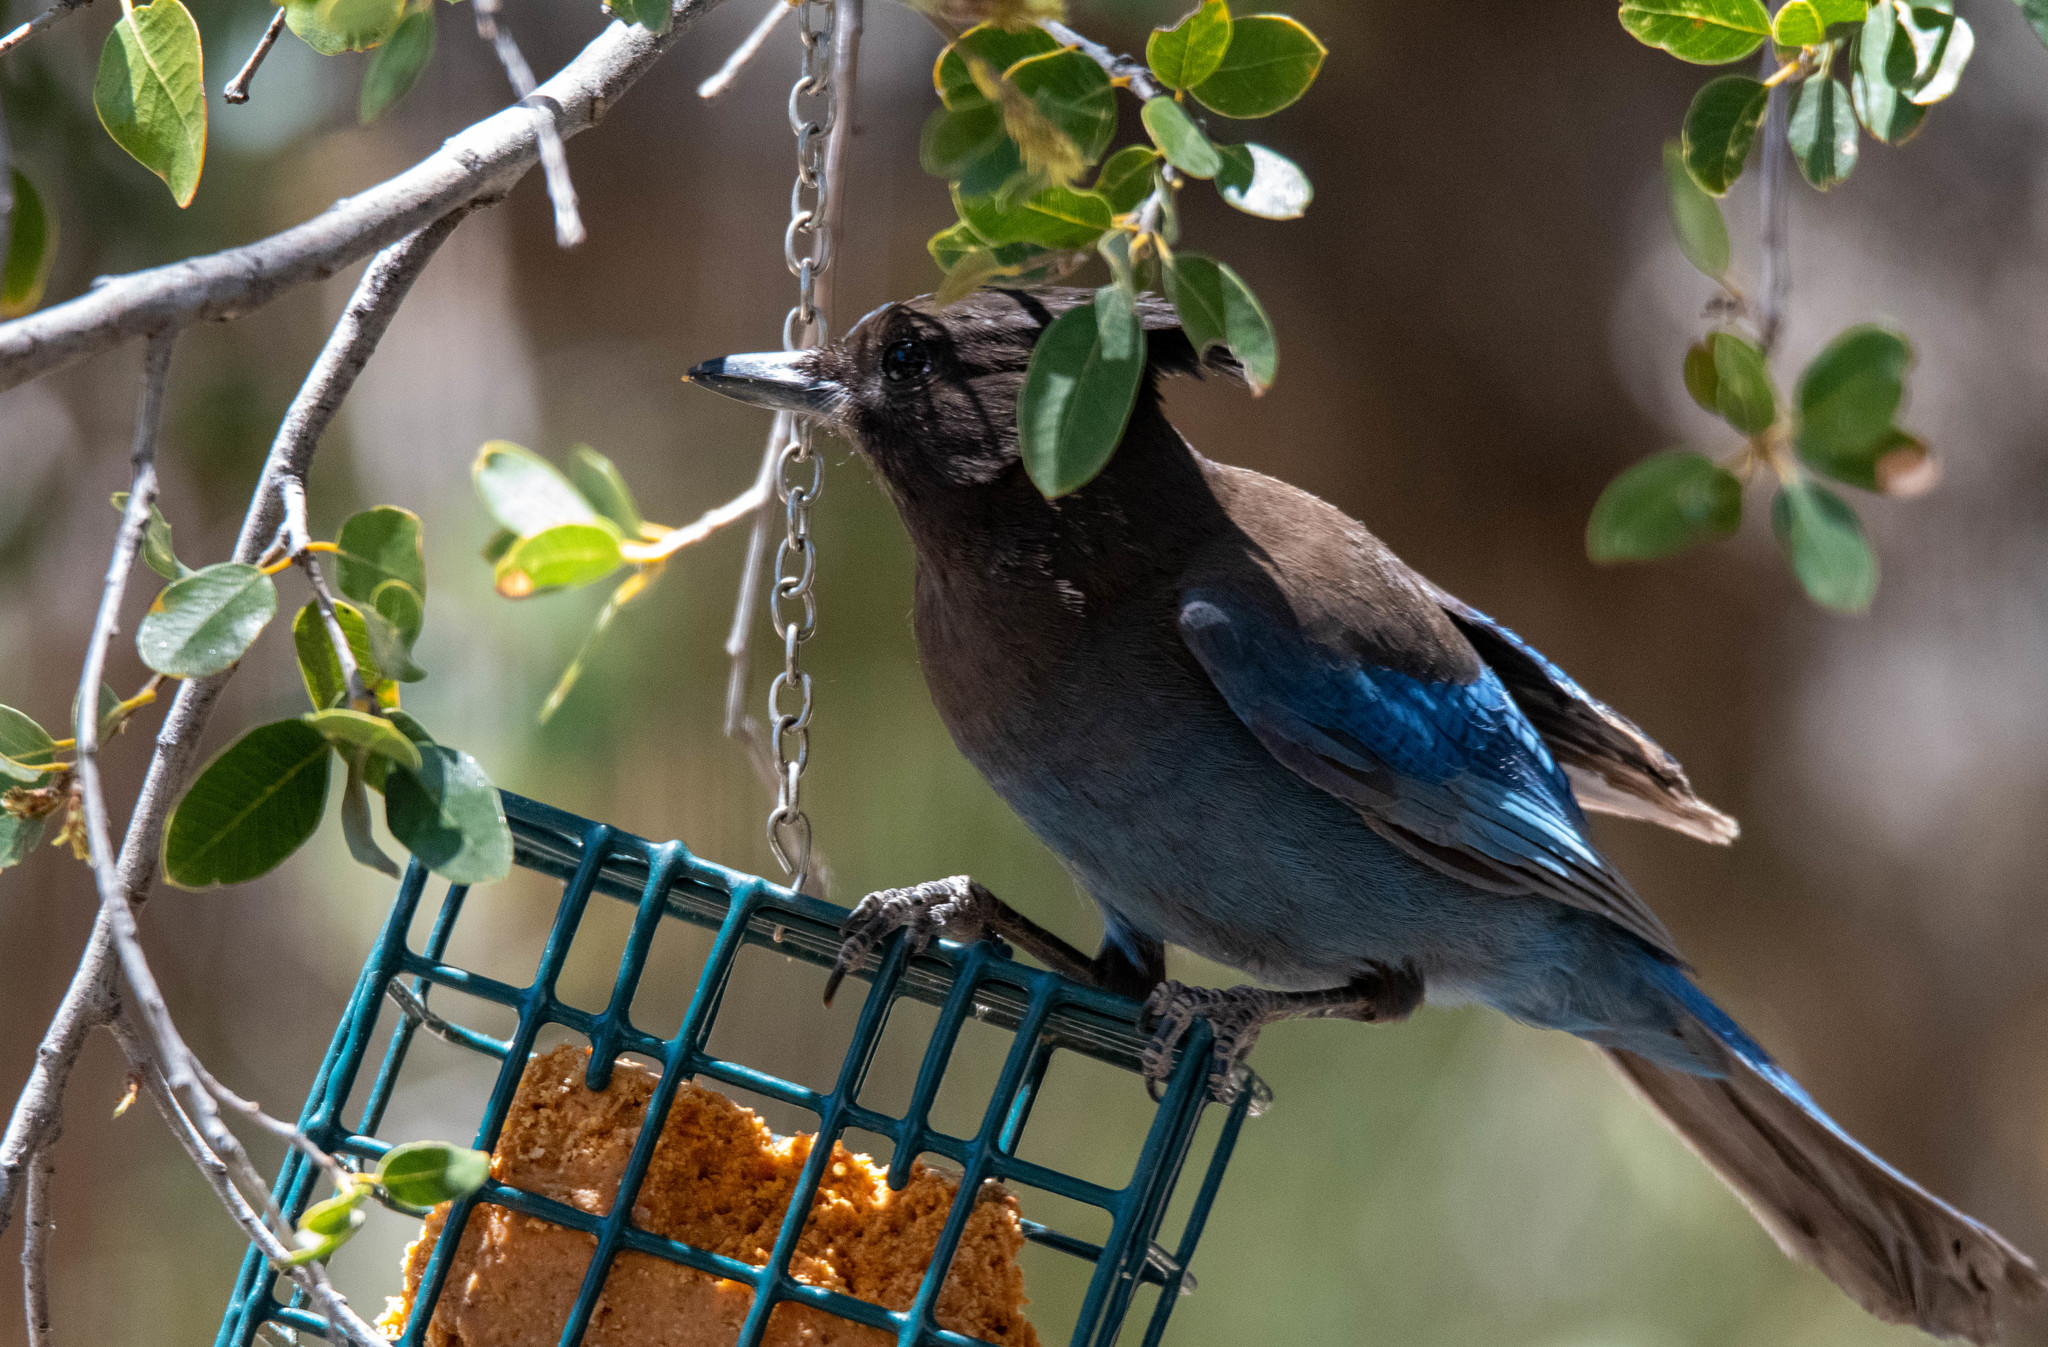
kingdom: Animalia
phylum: Chordata
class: Aves
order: Passeriformes
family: Corvidae
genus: Cyanocitta
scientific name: Cyanocitta stelleri
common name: Steller's jay
